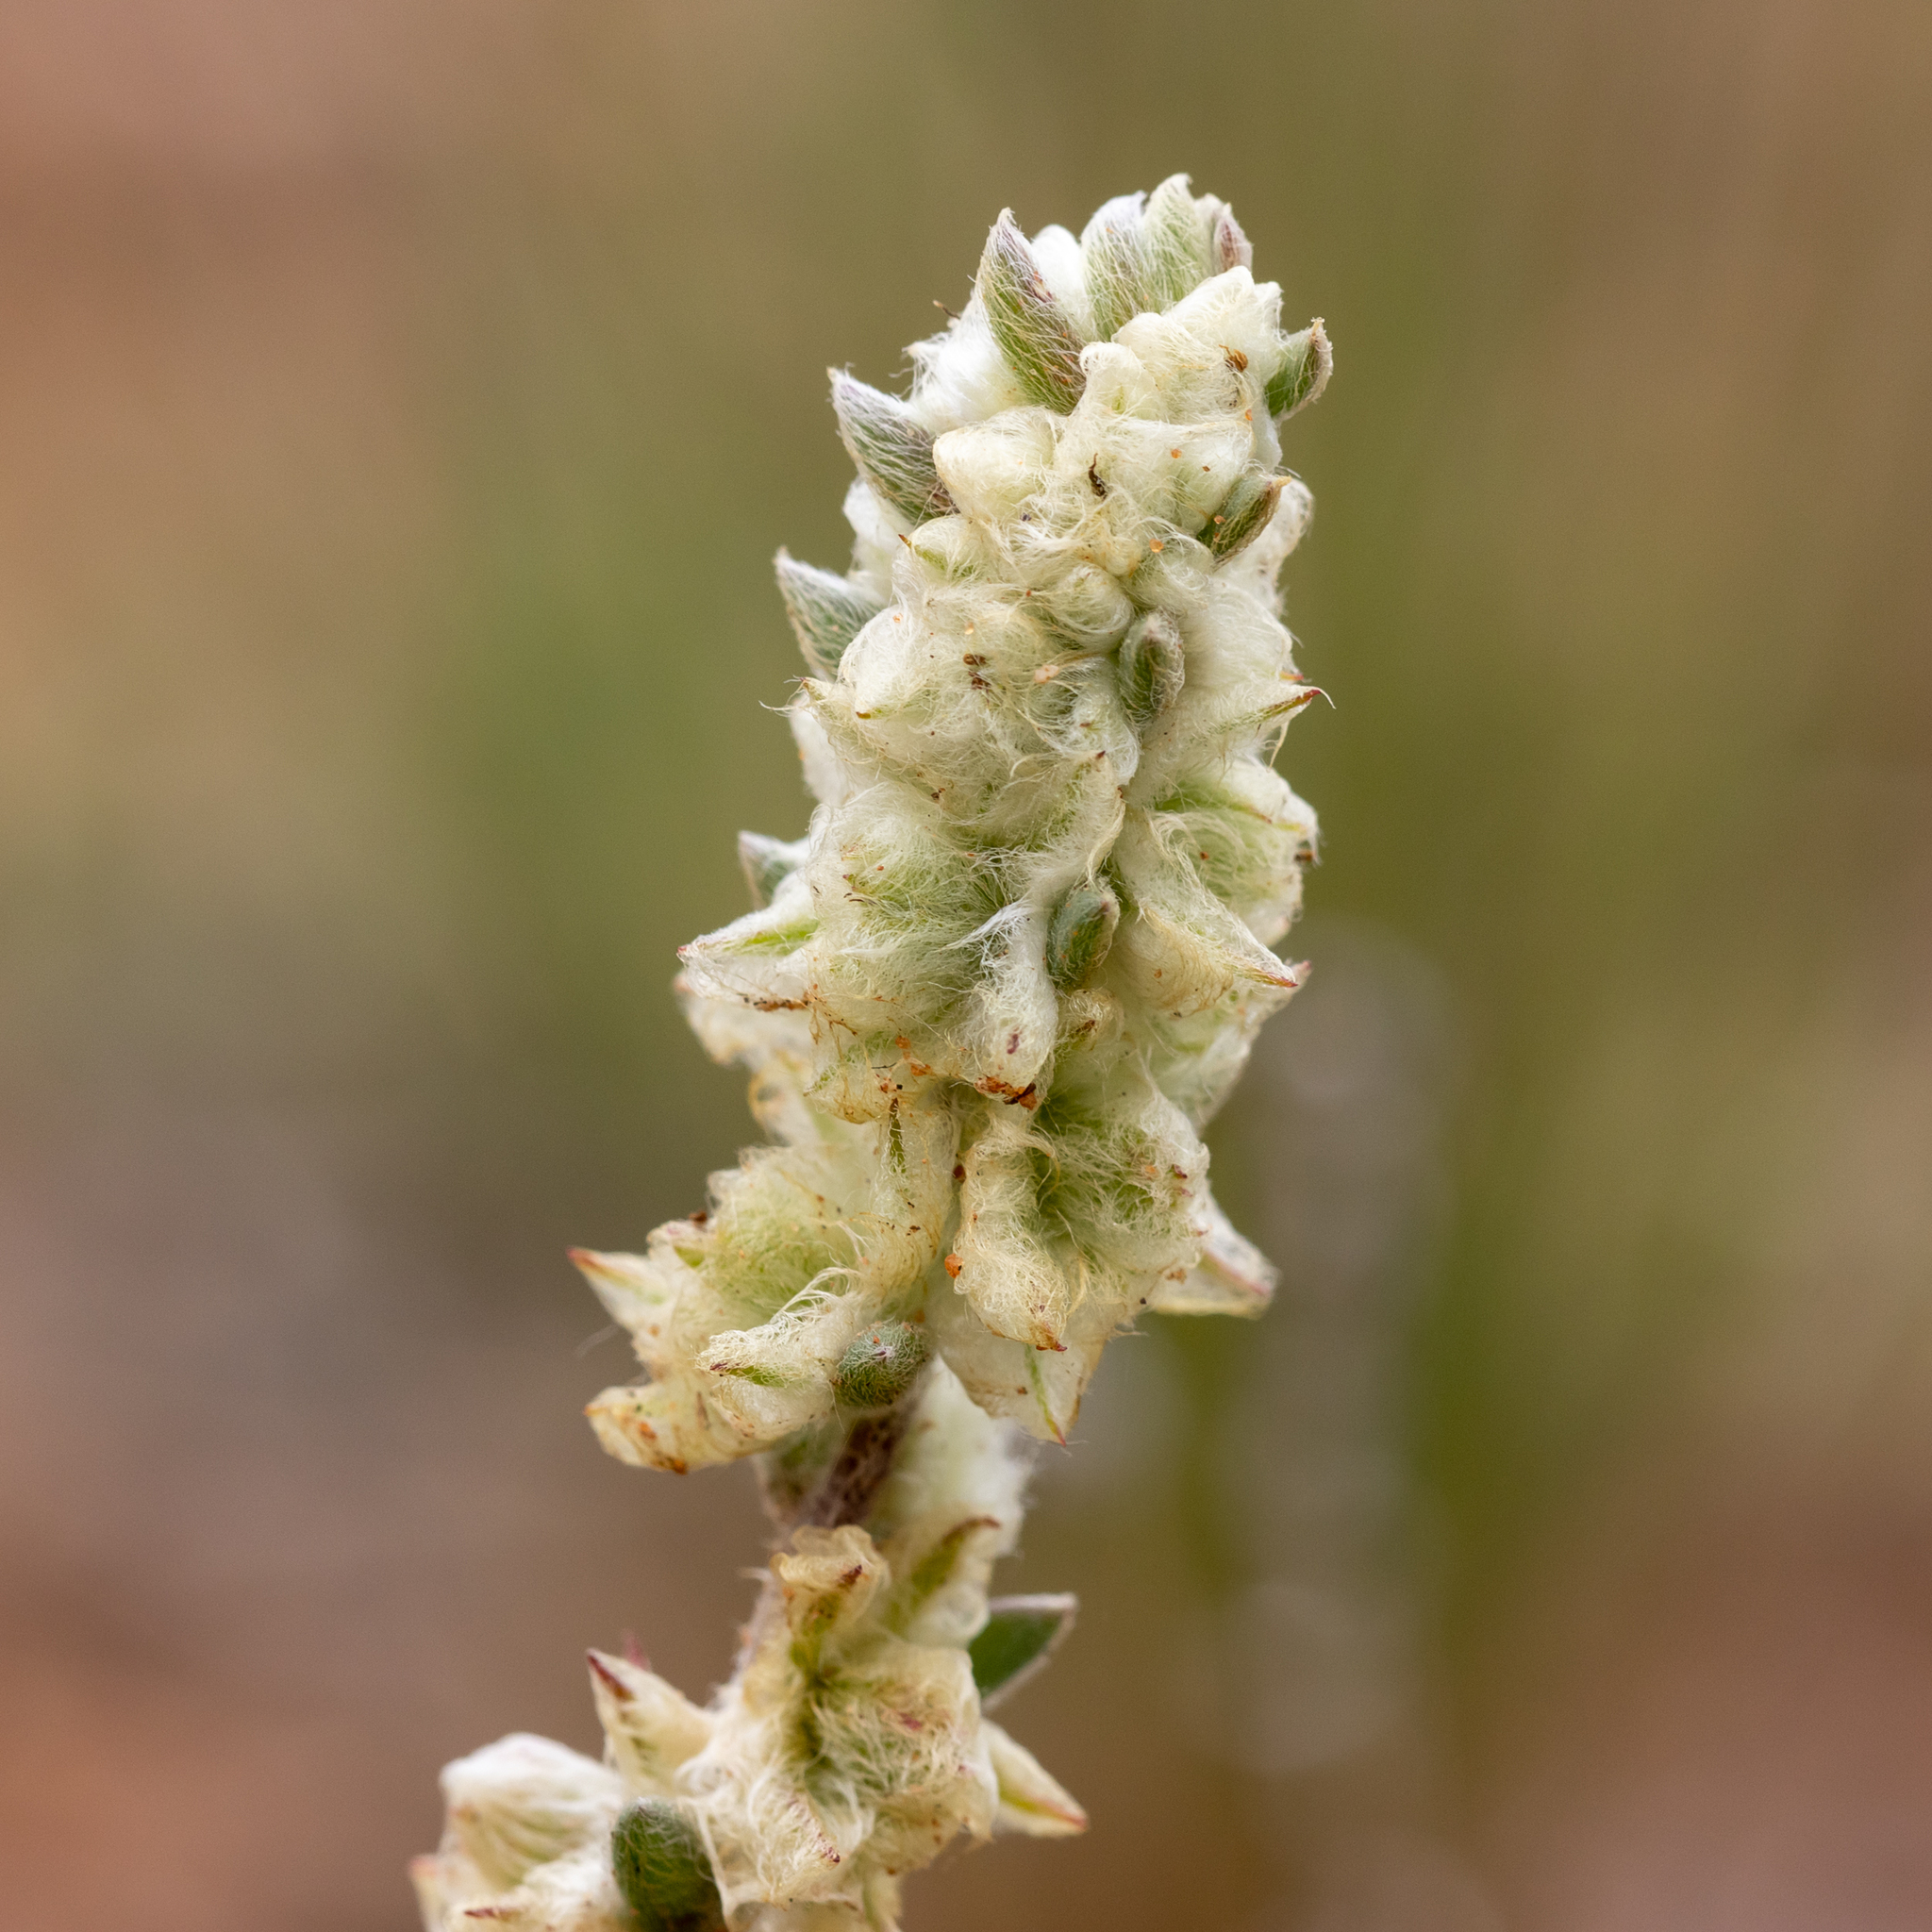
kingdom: Plantae
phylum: Tracheophyta
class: Magnoliopsida
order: Caryophyllales
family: Amaranthaceae
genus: Maireana
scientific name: Maireana sclerolaenoides
